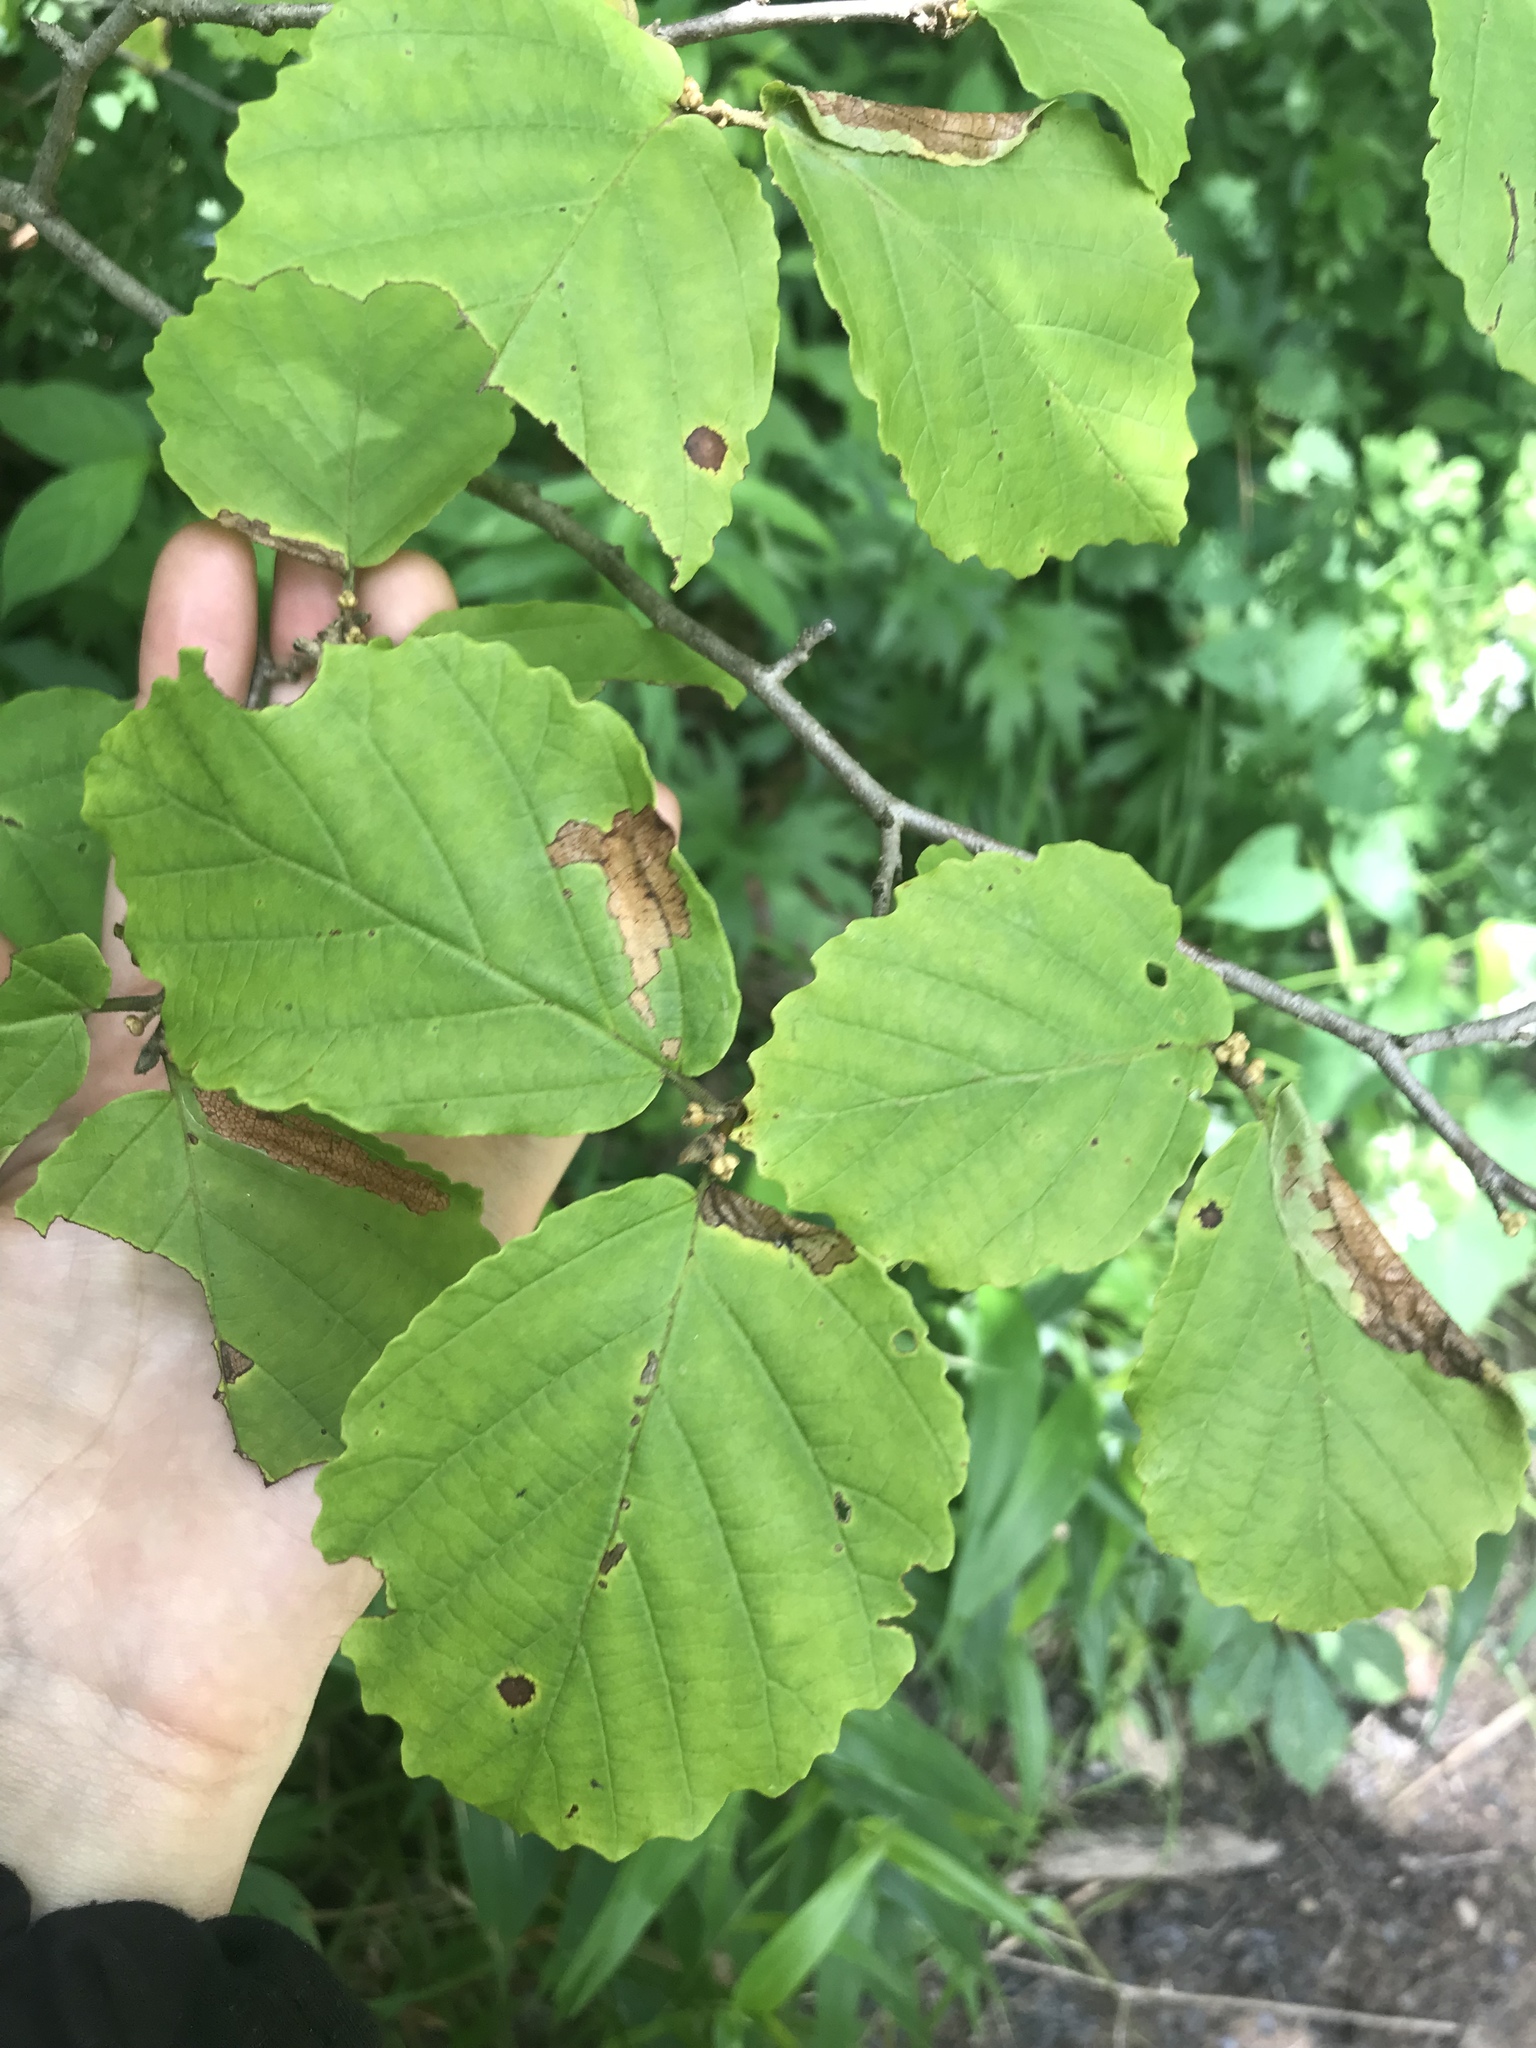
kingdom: Plantae
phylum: Tracheophyta
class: Magnoliopsida
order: Saxifragales
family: Hamamelidaceae
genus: Hamamelis
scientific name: Hamamelis virginiana
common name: Witch-hazel
